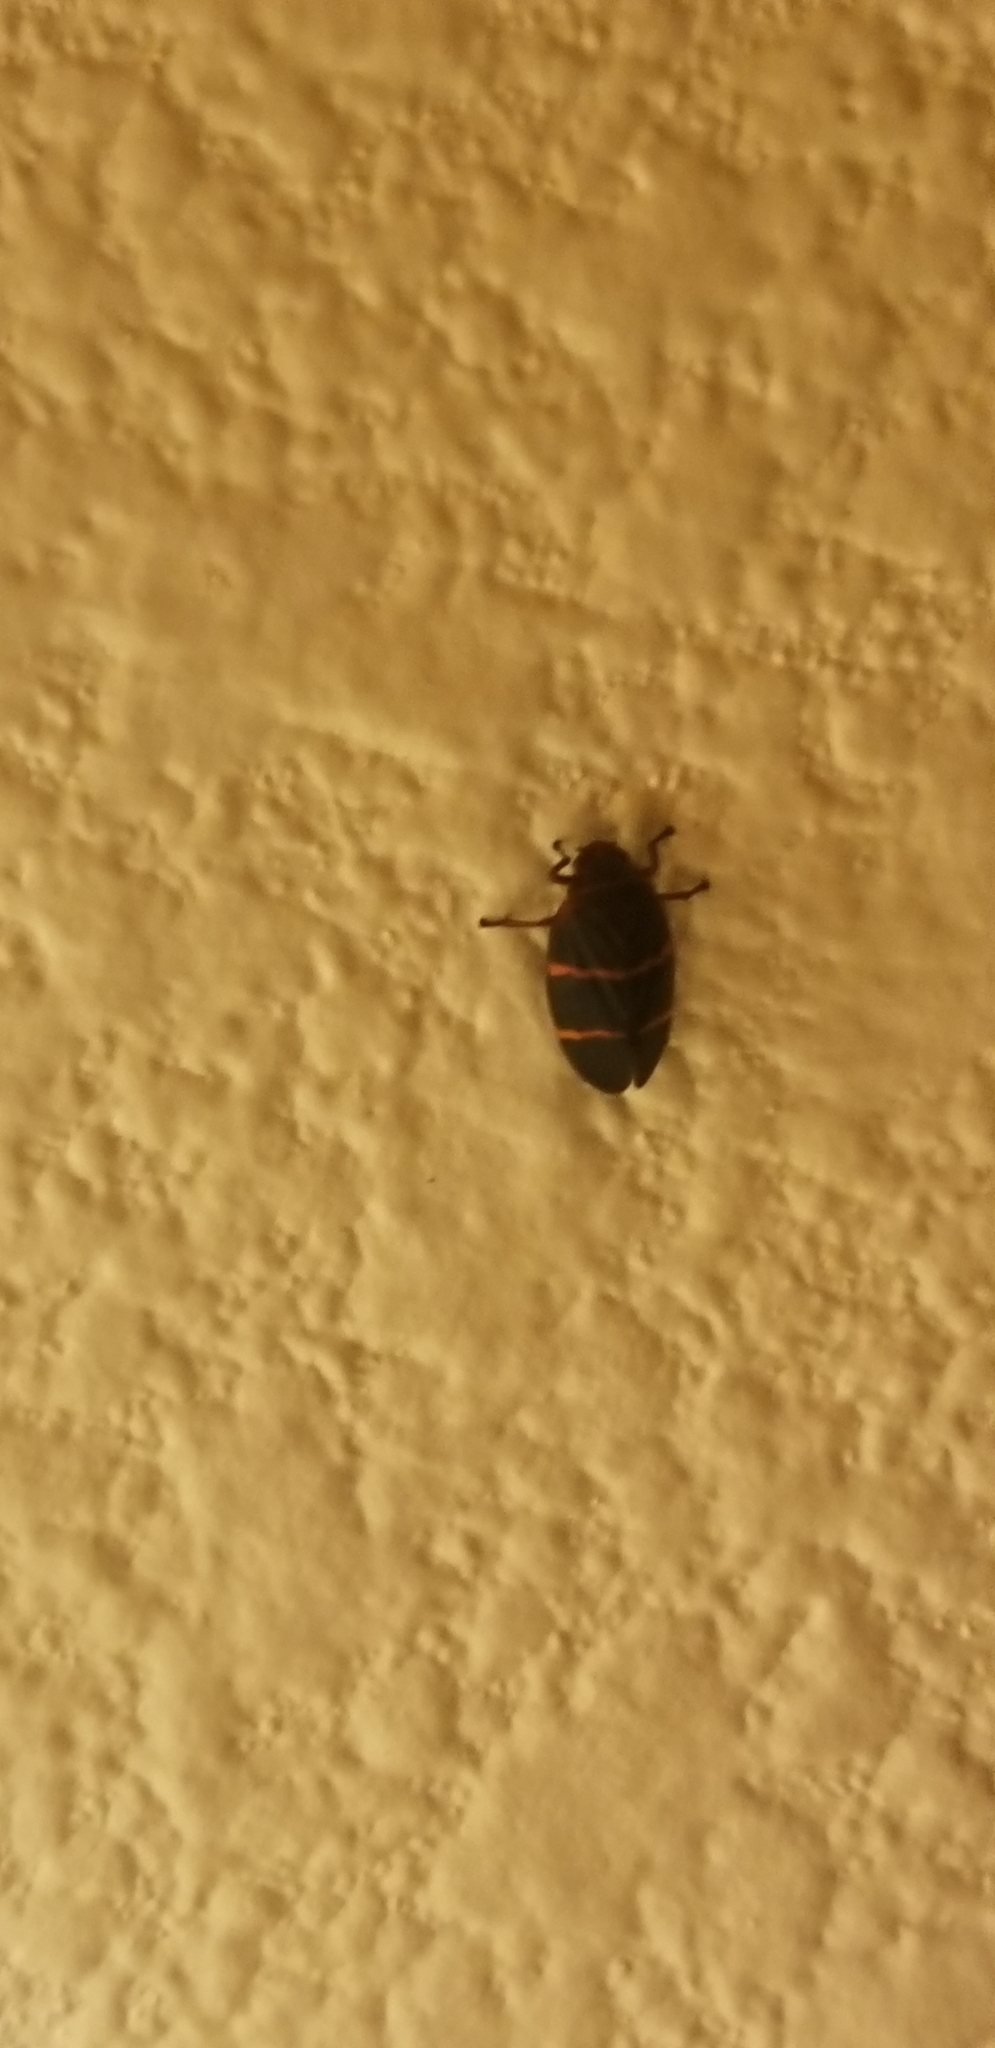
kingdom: Animalia
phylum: Arthropoda
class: Insecta
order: Hemiptera
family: Cercopidae
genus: Prosapia
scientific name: Prosapia bicincta
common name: Twolined spittlebug
